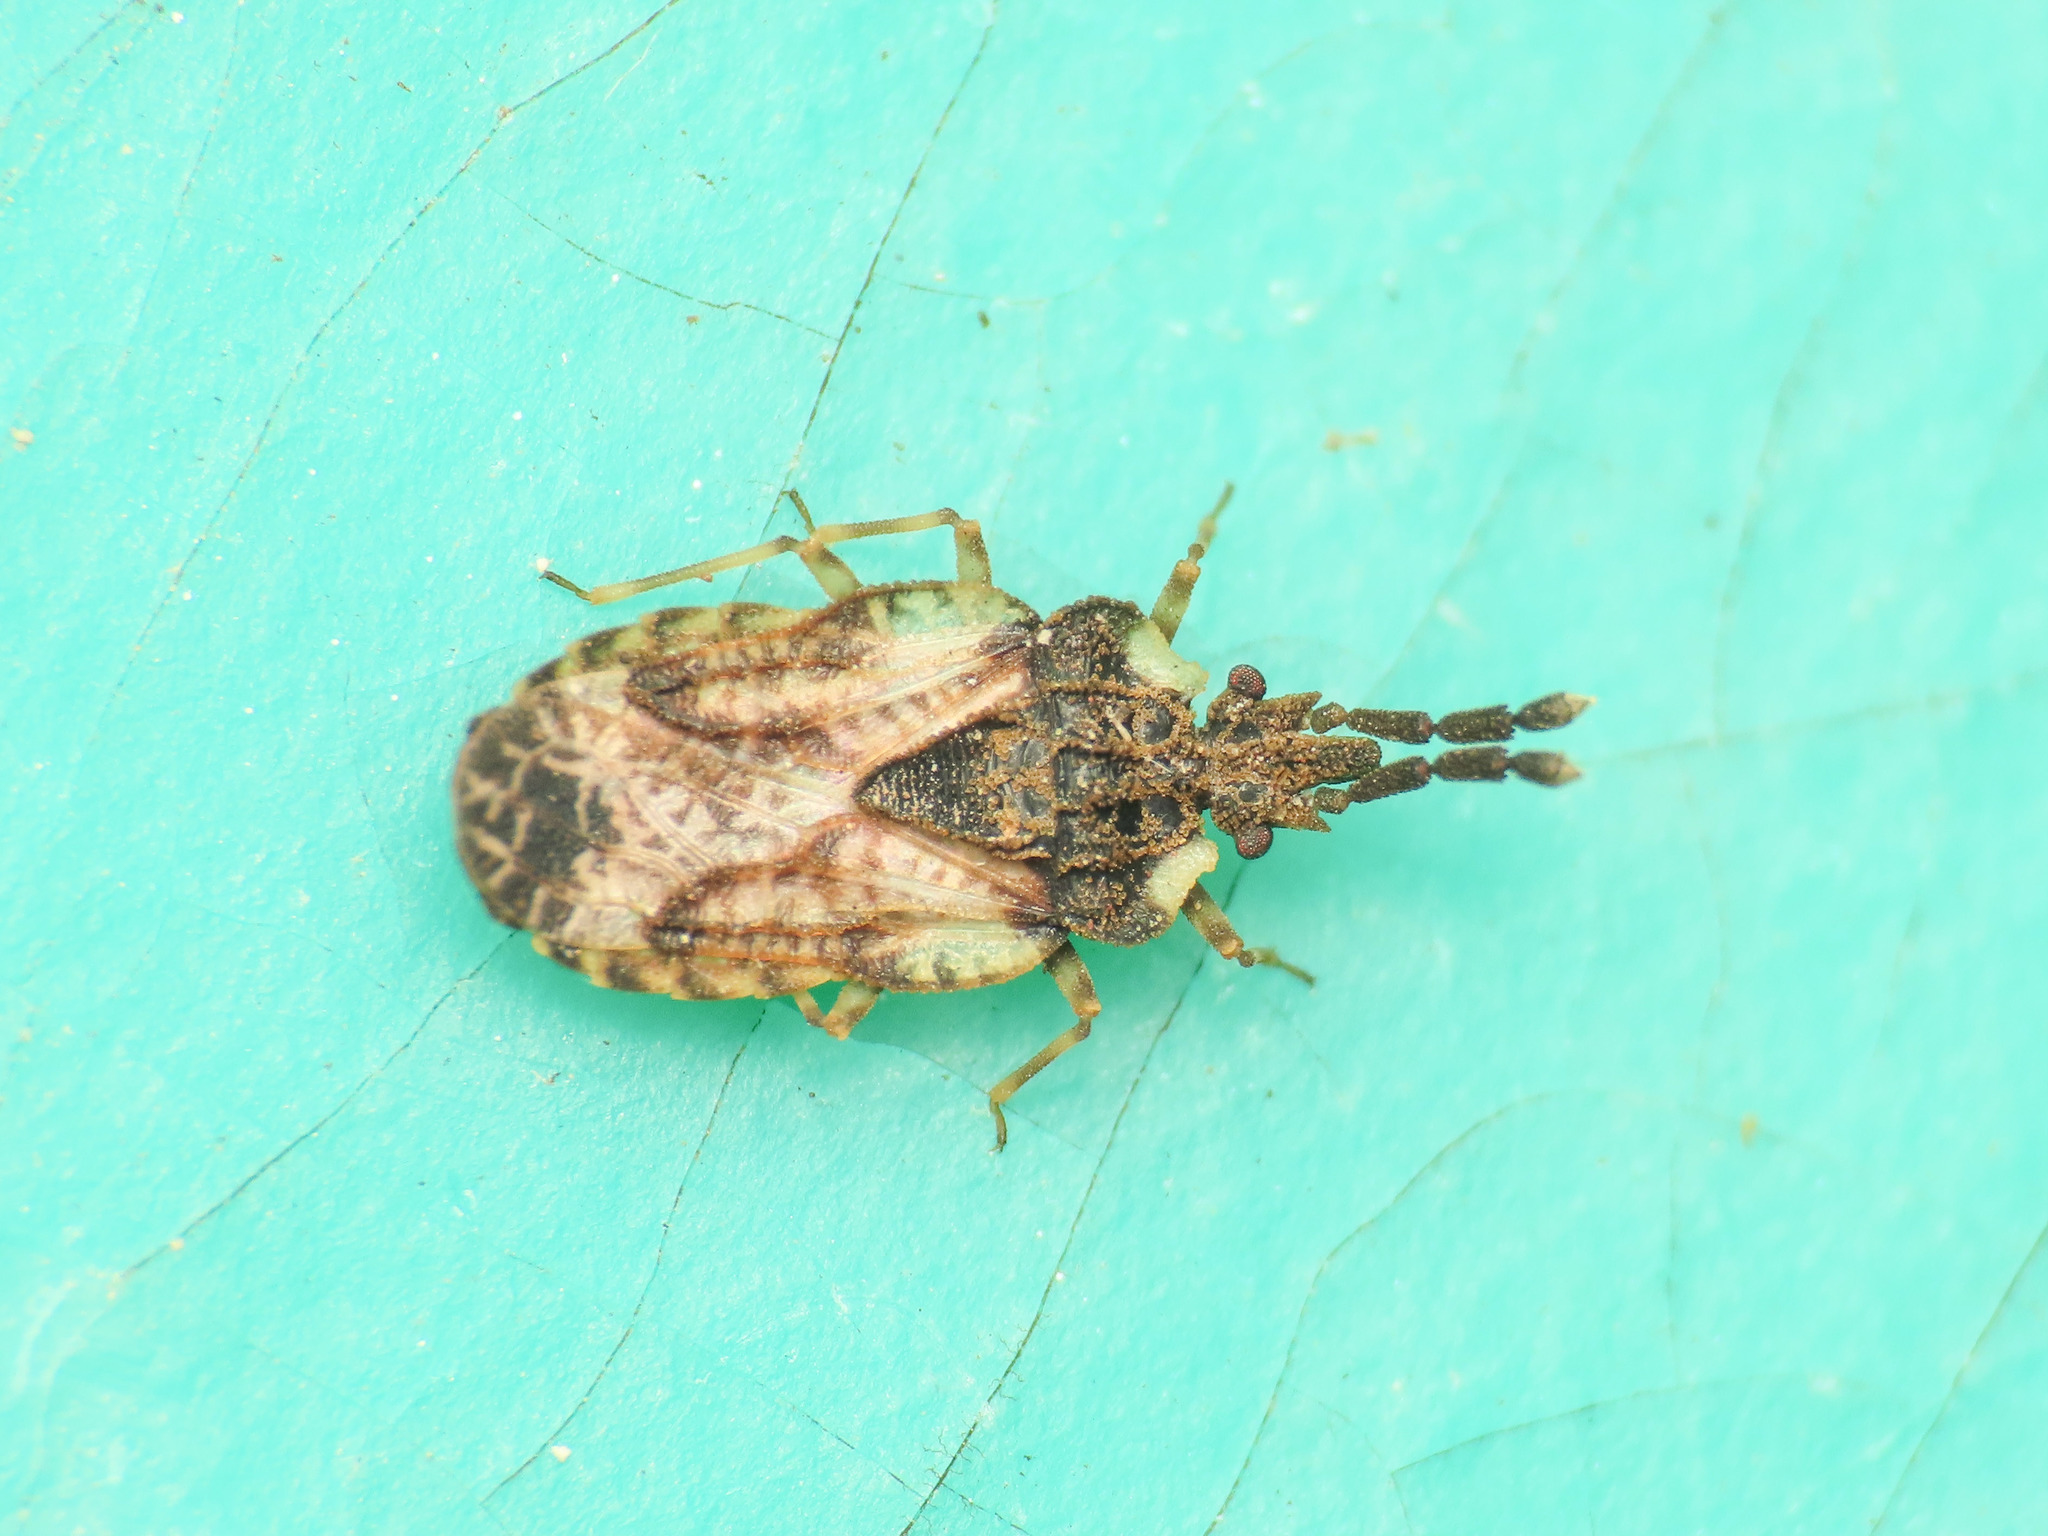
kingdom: Animalia
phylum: Arthropoda
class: Insecta
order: Hemiptera
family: Aradidae
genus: Aradus
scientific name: Aradus depressus
